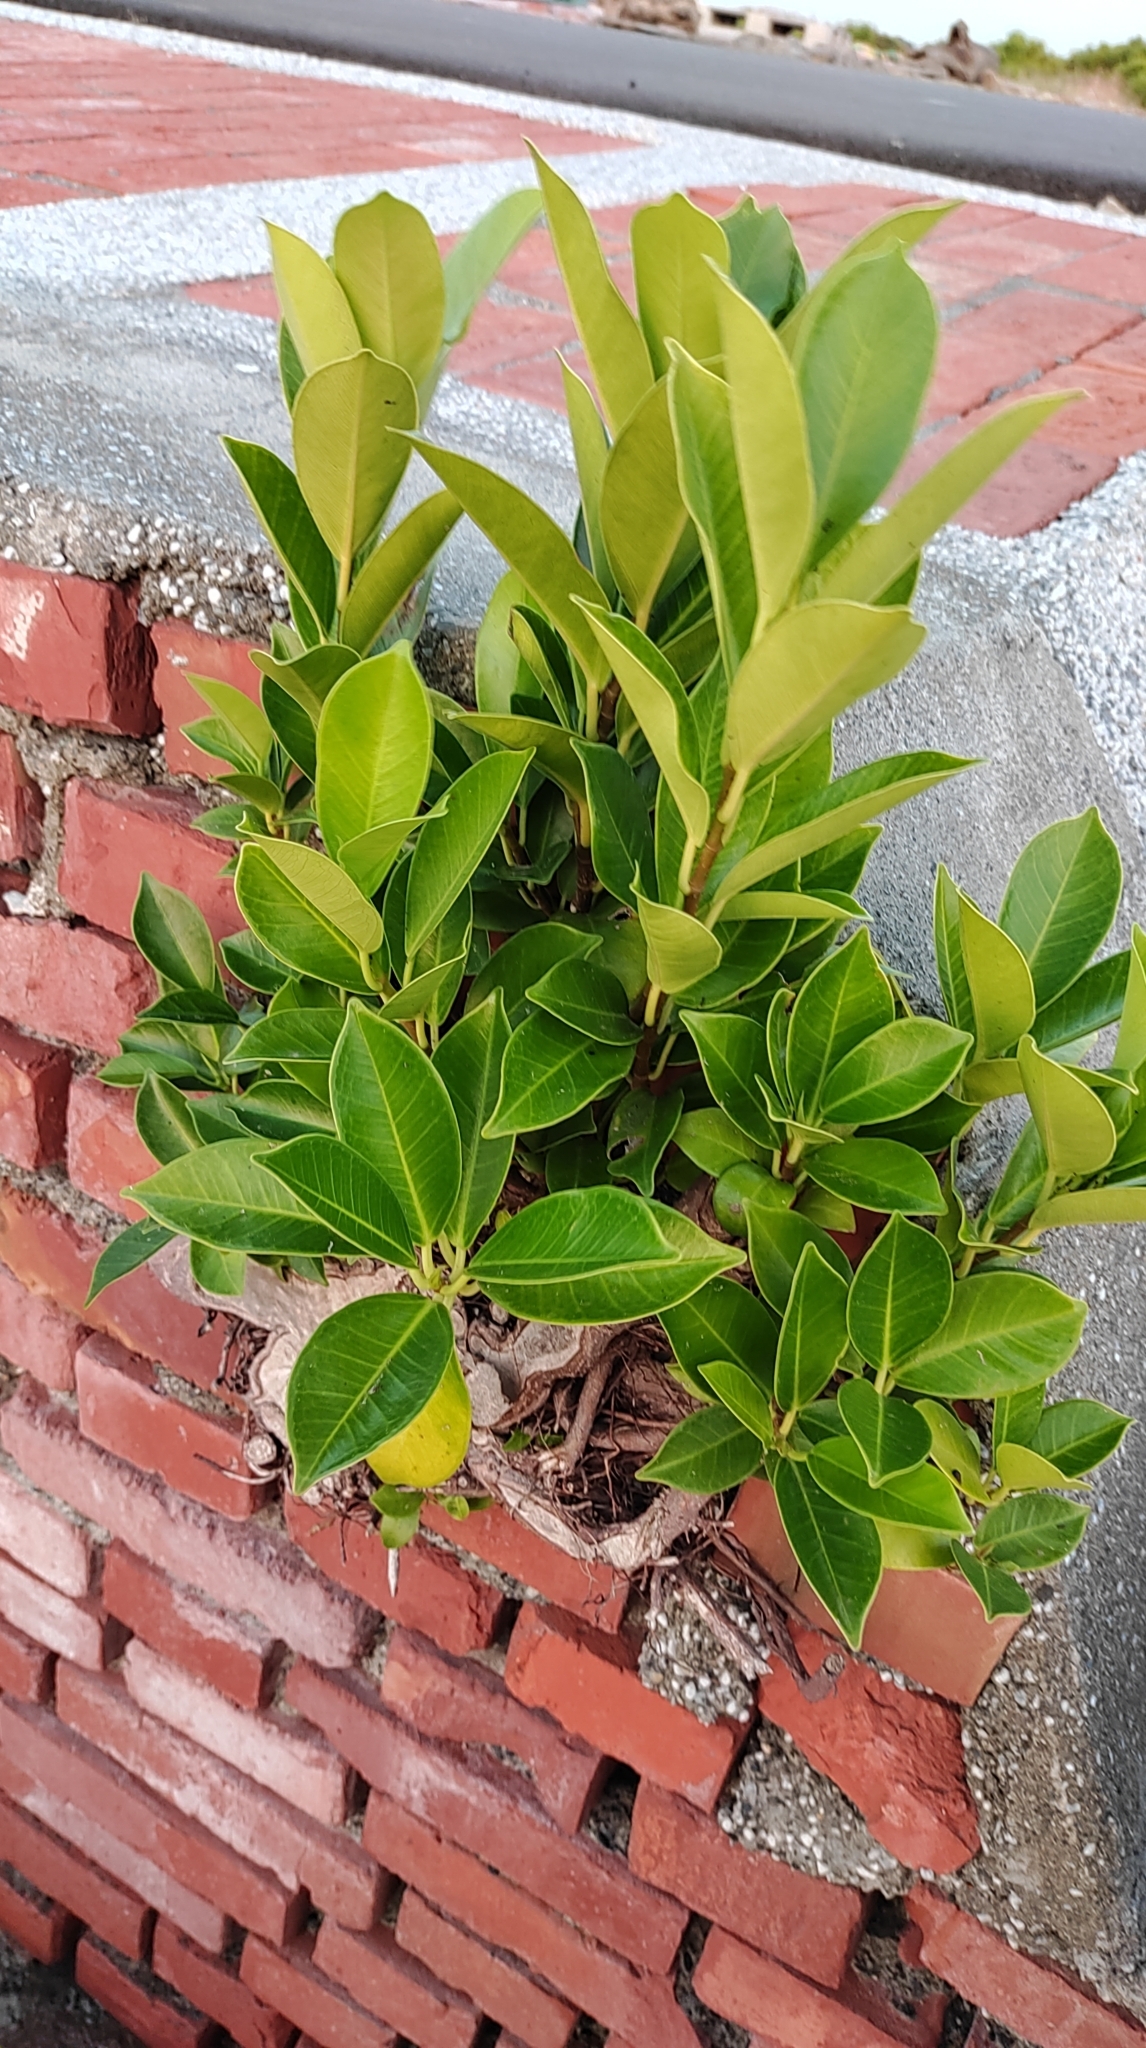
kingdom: Plantae
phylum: Tracheophyta
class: Magnoliopsida
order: Rosales
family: Moraceae
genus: Ficus
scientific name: Ficus microcarpa
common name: Chinese banyan
